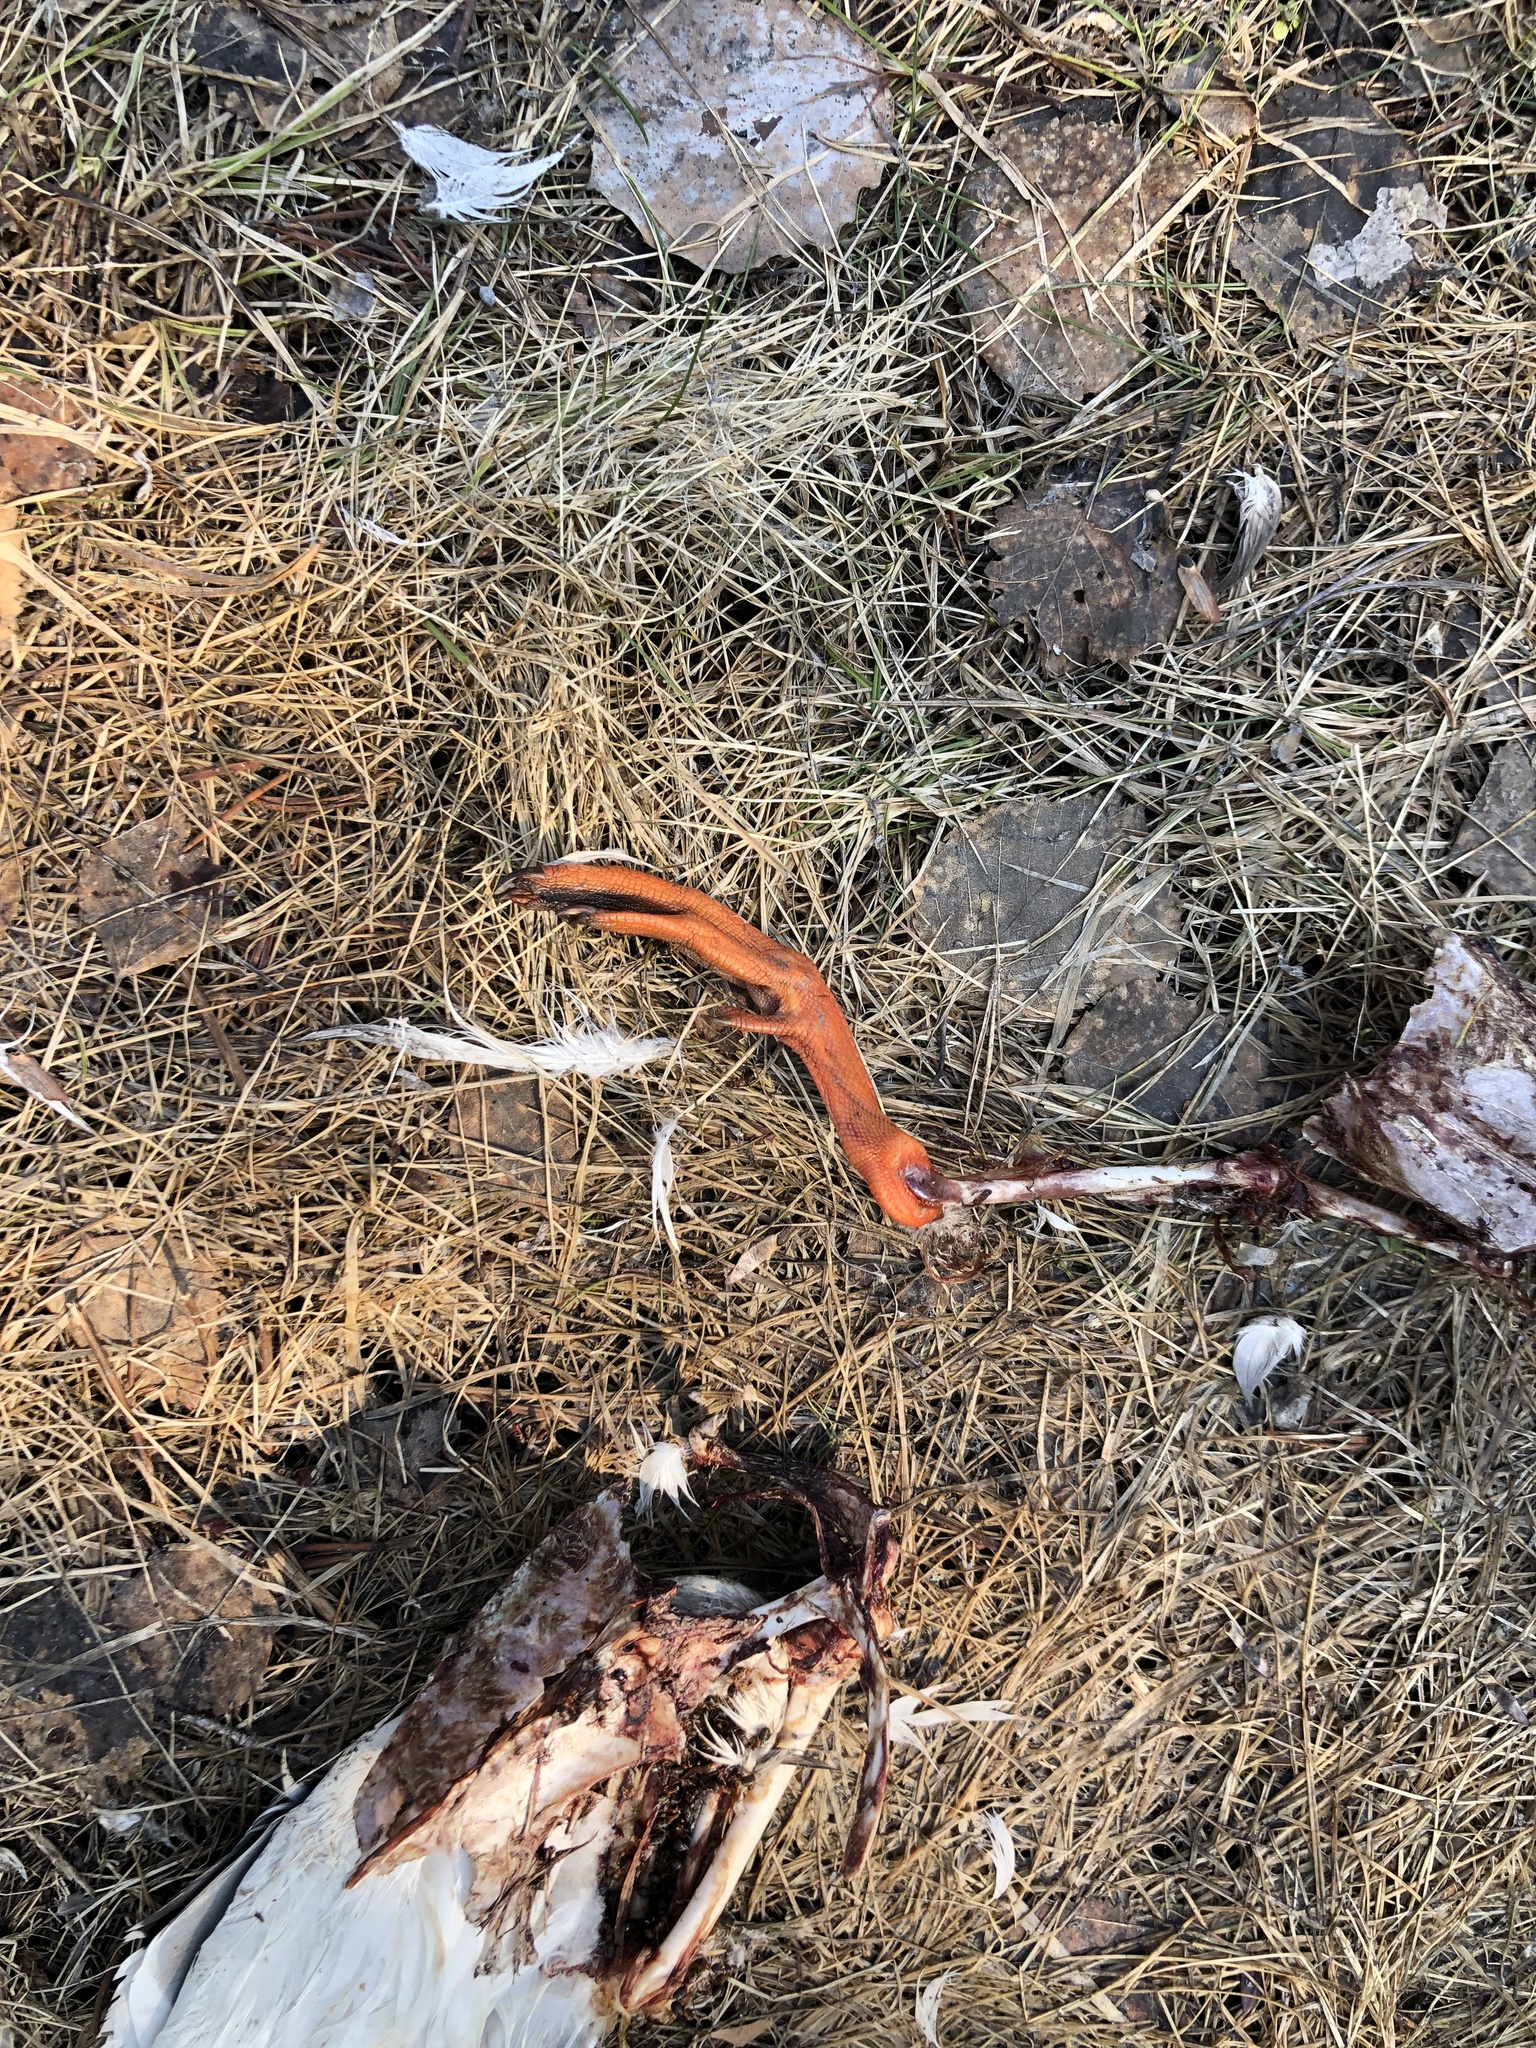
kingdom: Animalia
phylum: Chordata
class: Aves
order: Anseriformes
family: Anatidae
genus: Anas
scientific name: Anas platyrhynchos
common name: Mallard
